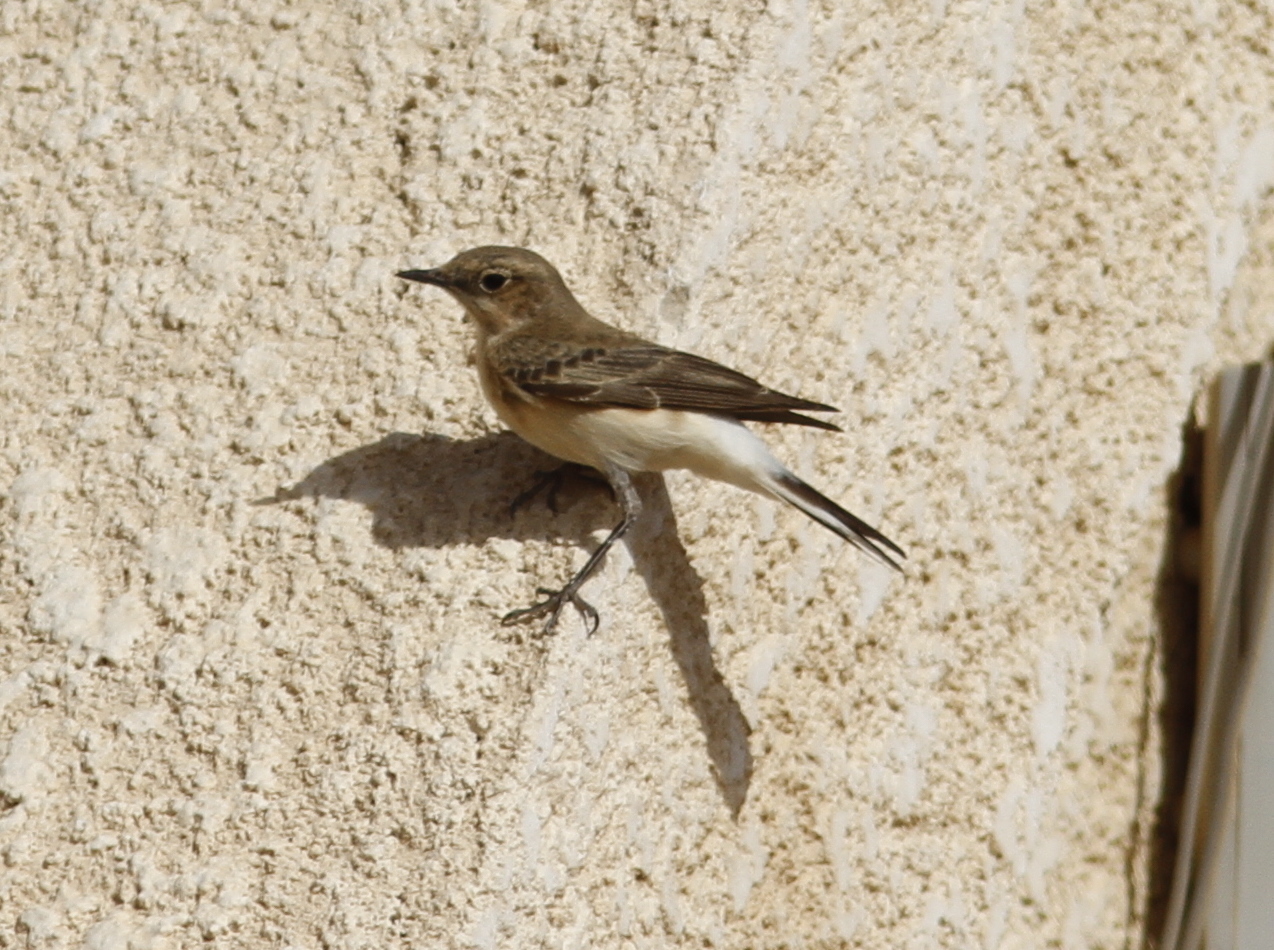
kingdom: Animalia
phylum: Chordata
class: Aves
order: Passeriformes
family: Muscicapidae
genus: Oenanthe
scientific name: Oenanthe hispanica
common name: Black-eared wheatear
